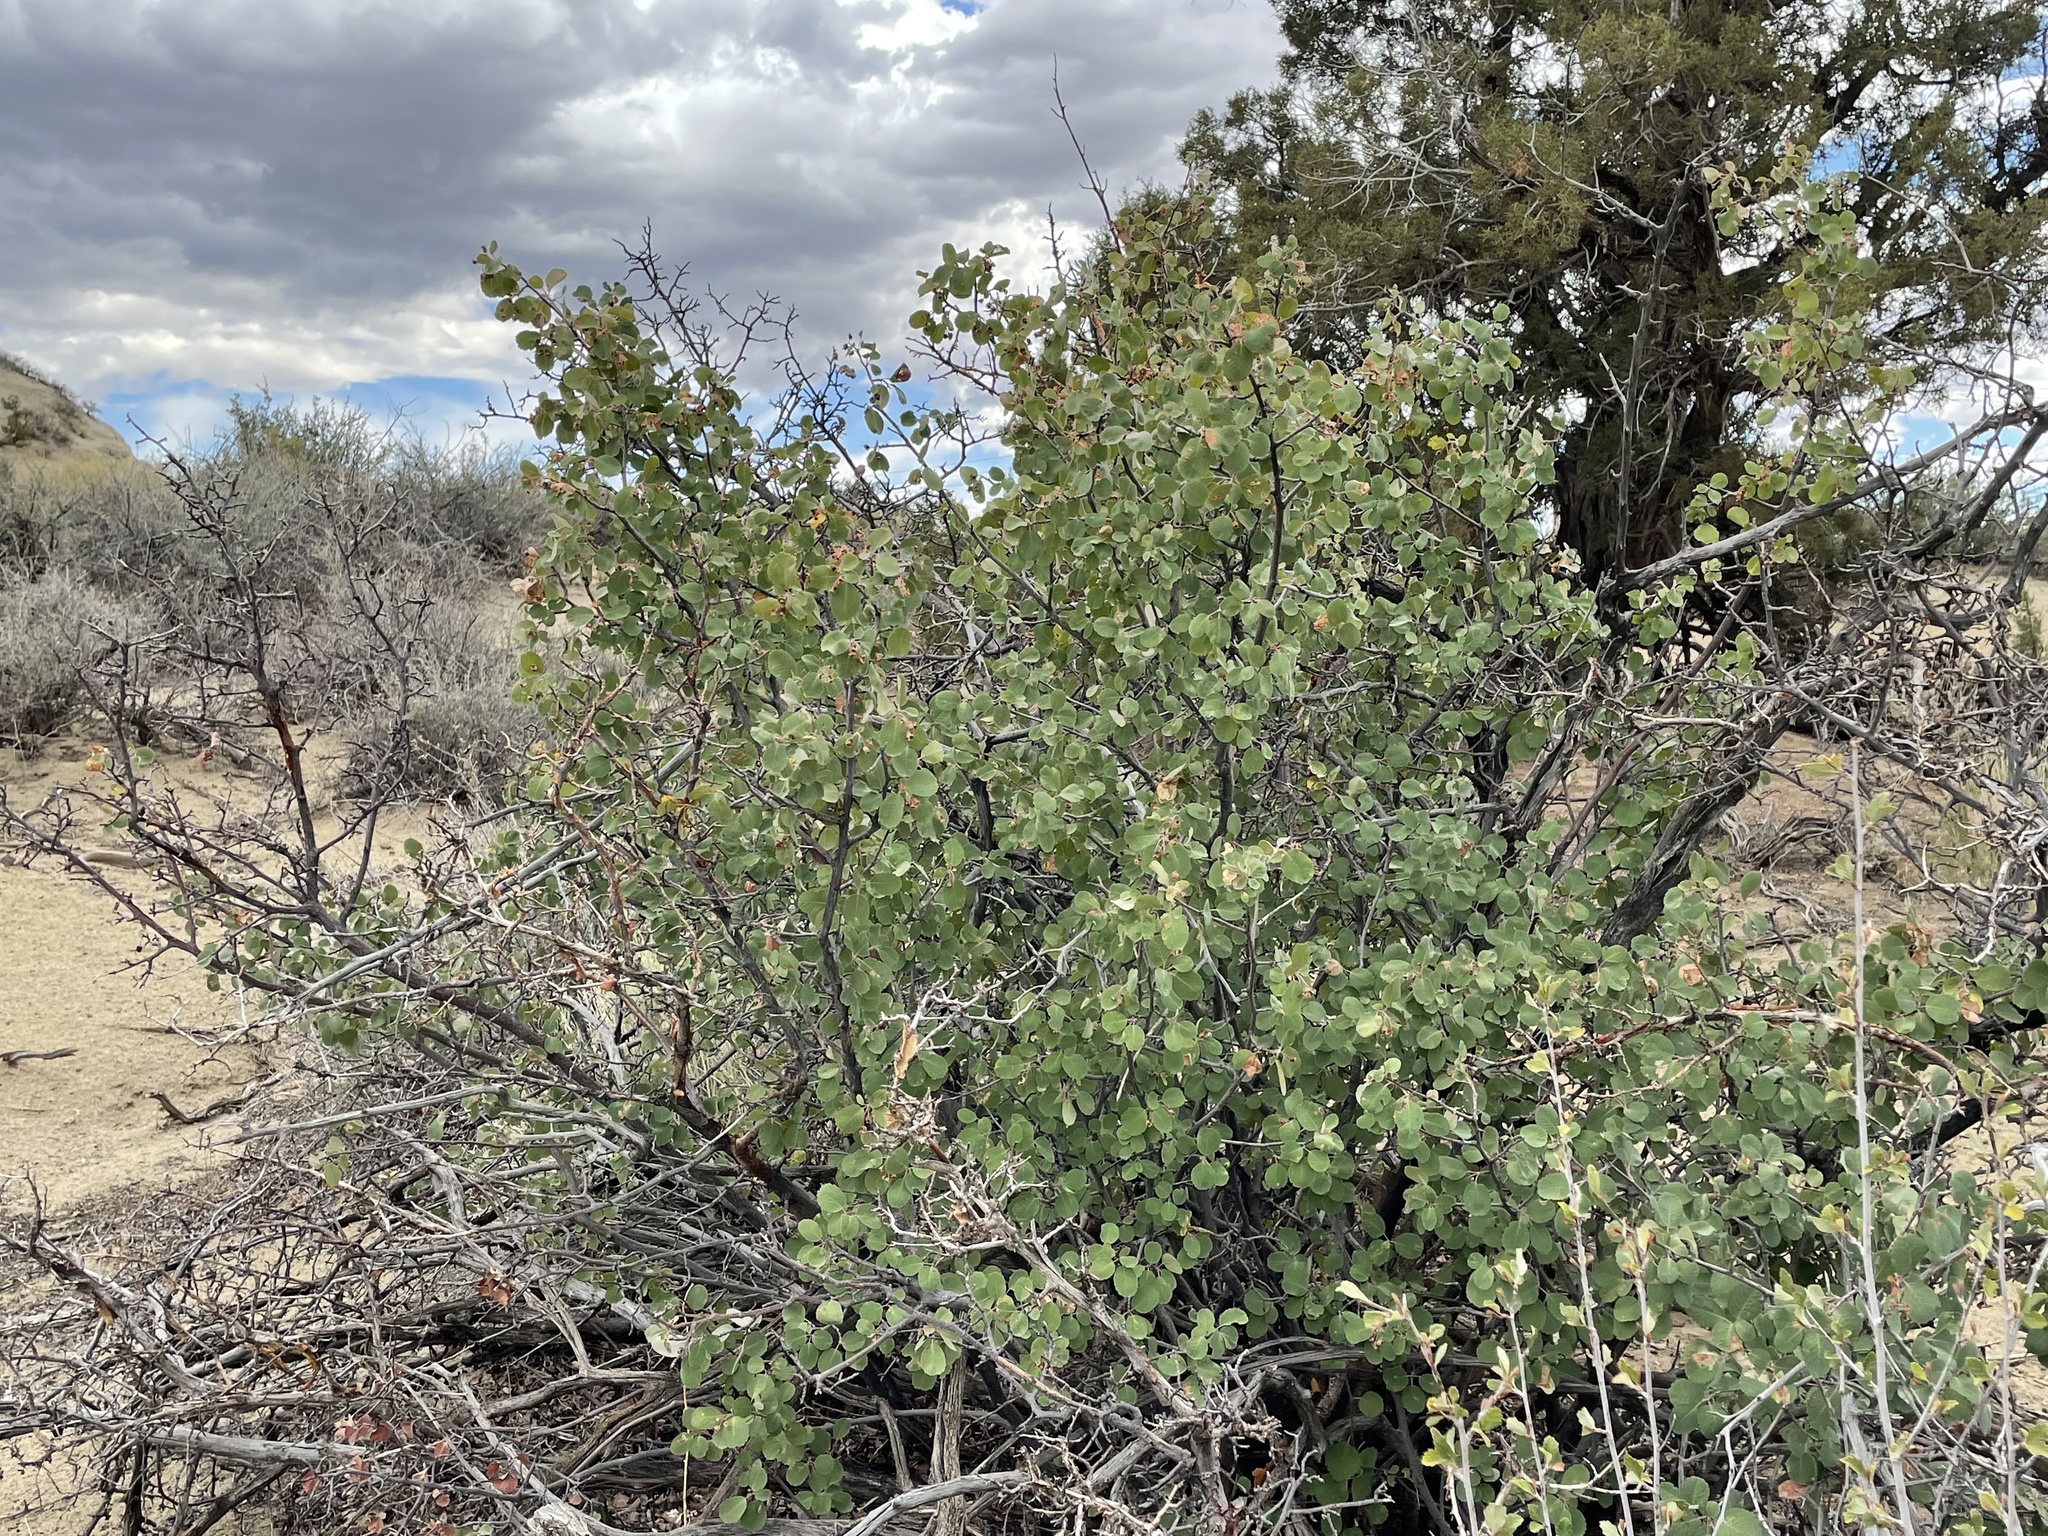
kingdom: Plantae
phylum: Tracheophyta
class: Magnoliopsida
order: Rosales
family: Rosaceae
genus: Amelanchier
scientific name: Amelanchier utahensis
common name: Utah serviceberry
